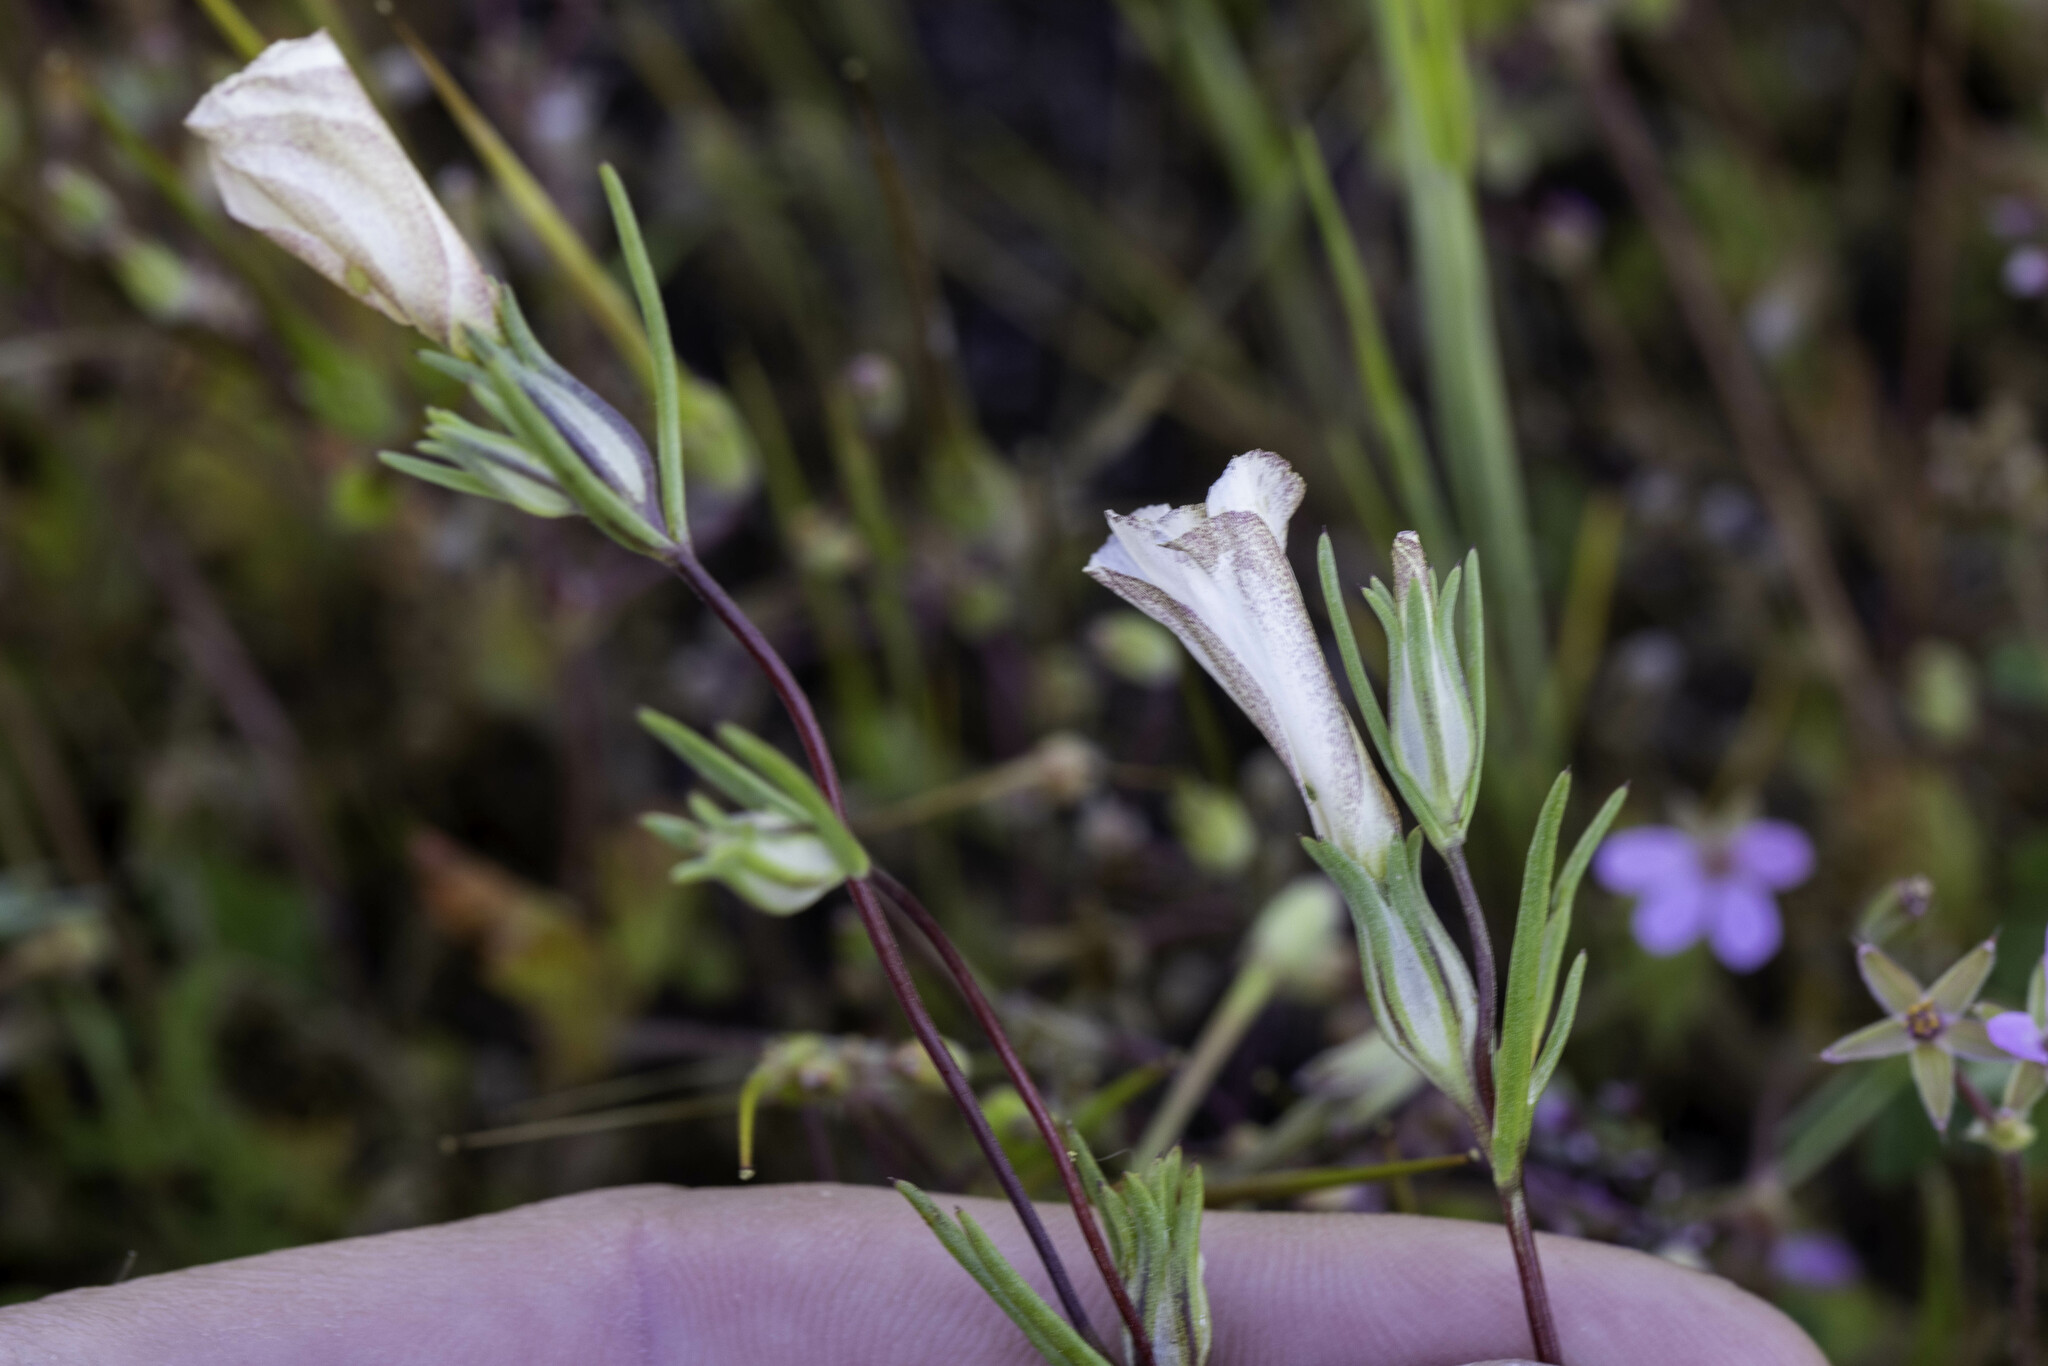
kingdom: Plantae
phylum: Tracheophyta
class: Magnoliopsida
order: Ericales
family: Polemoniaceae
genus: Linanthus
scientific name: Linanthus dichotomus
